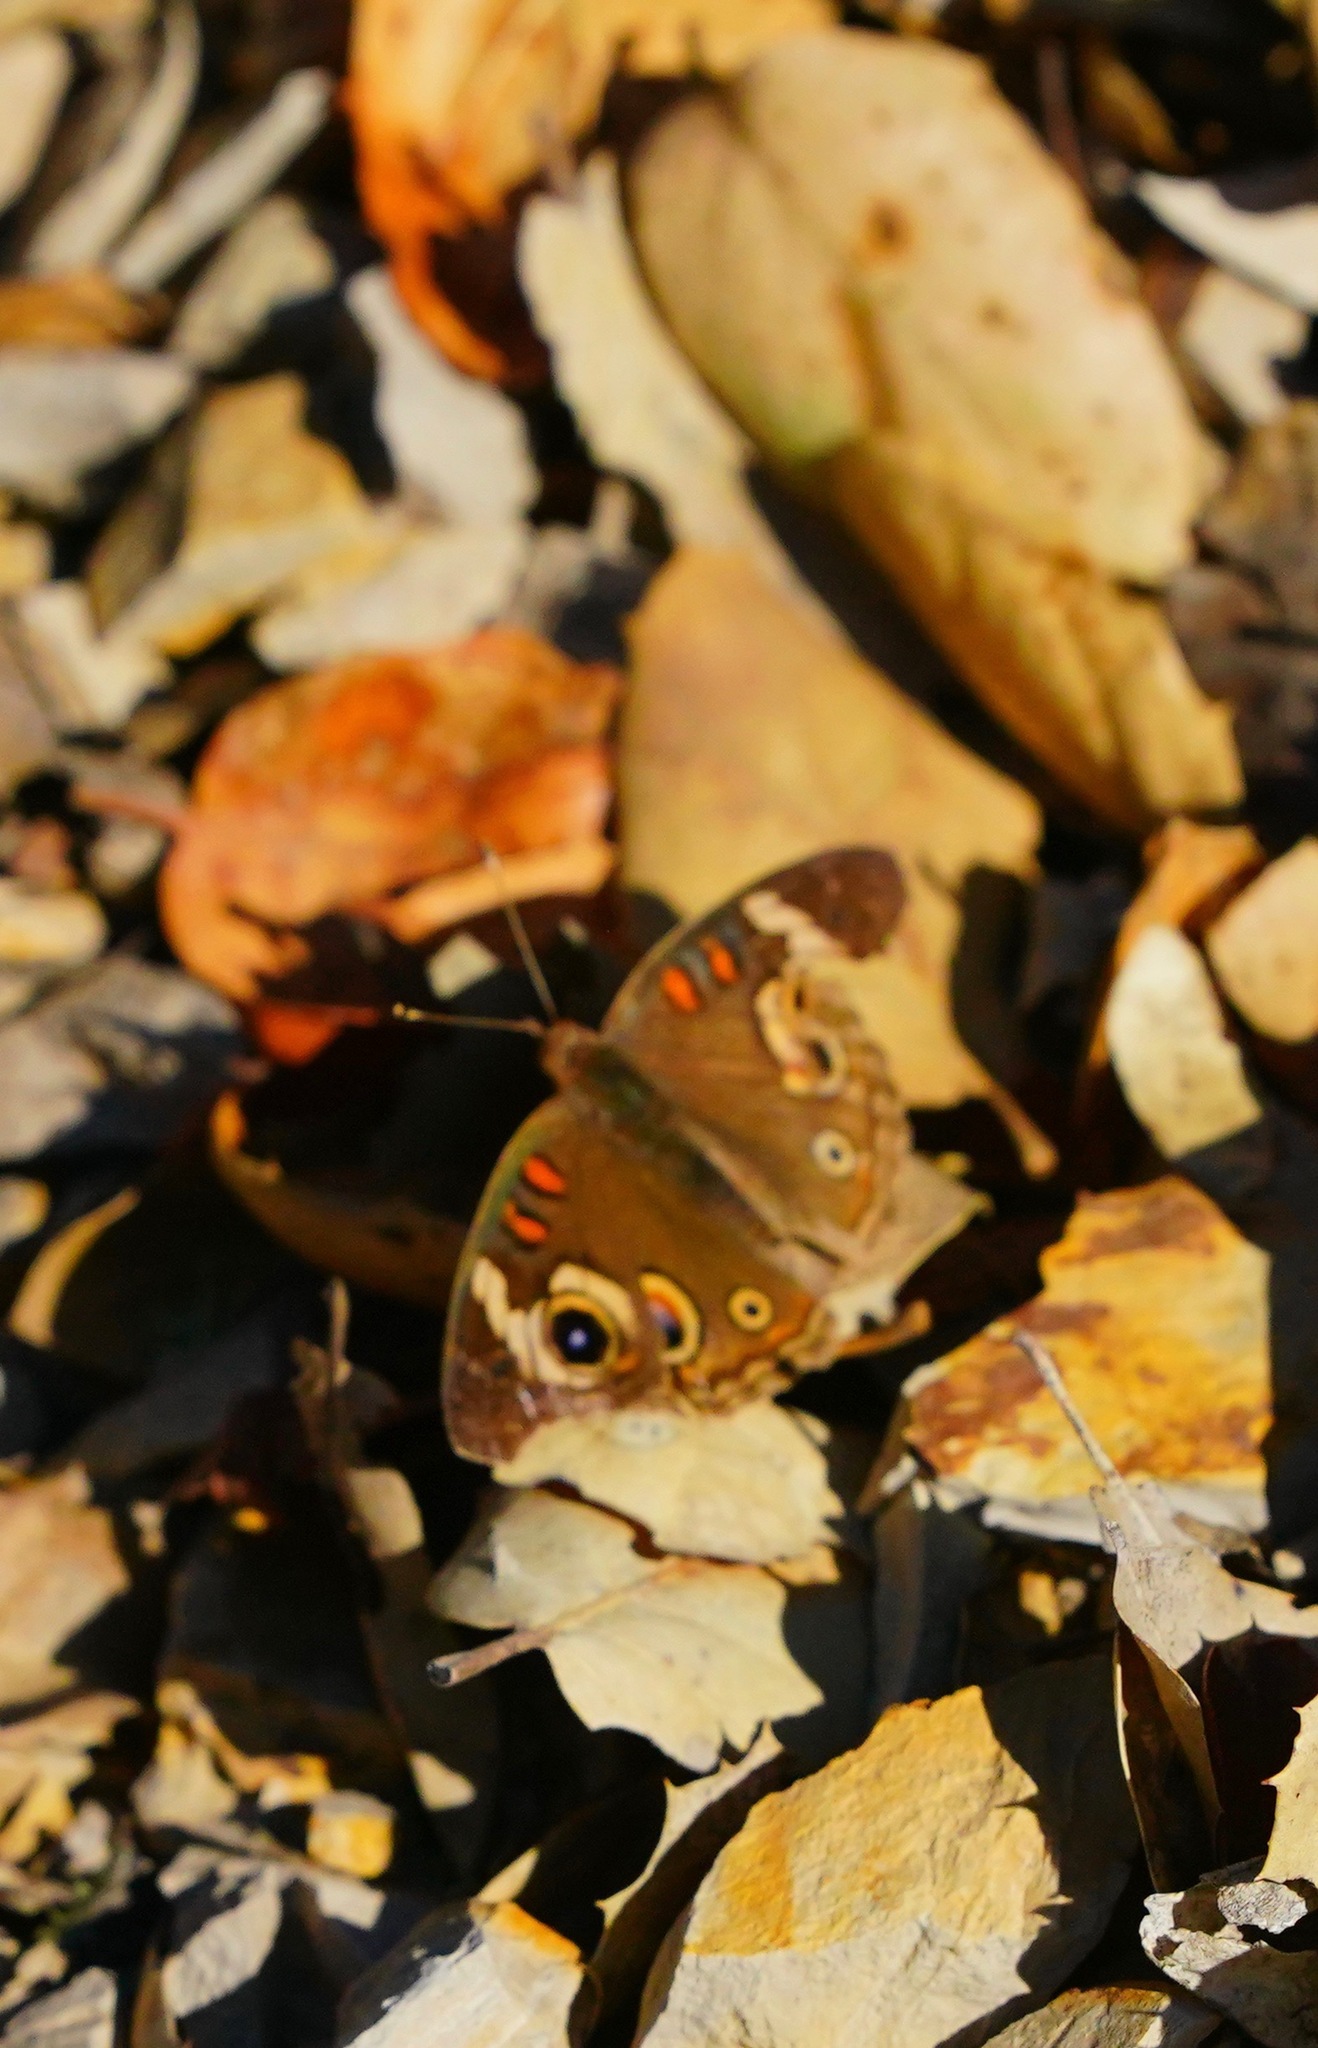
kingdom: Animalia
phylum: Arthropoda
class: Insecta
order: Lepidoptera
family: Nymphalidae
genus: Junonia
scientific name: Junonia grisea
